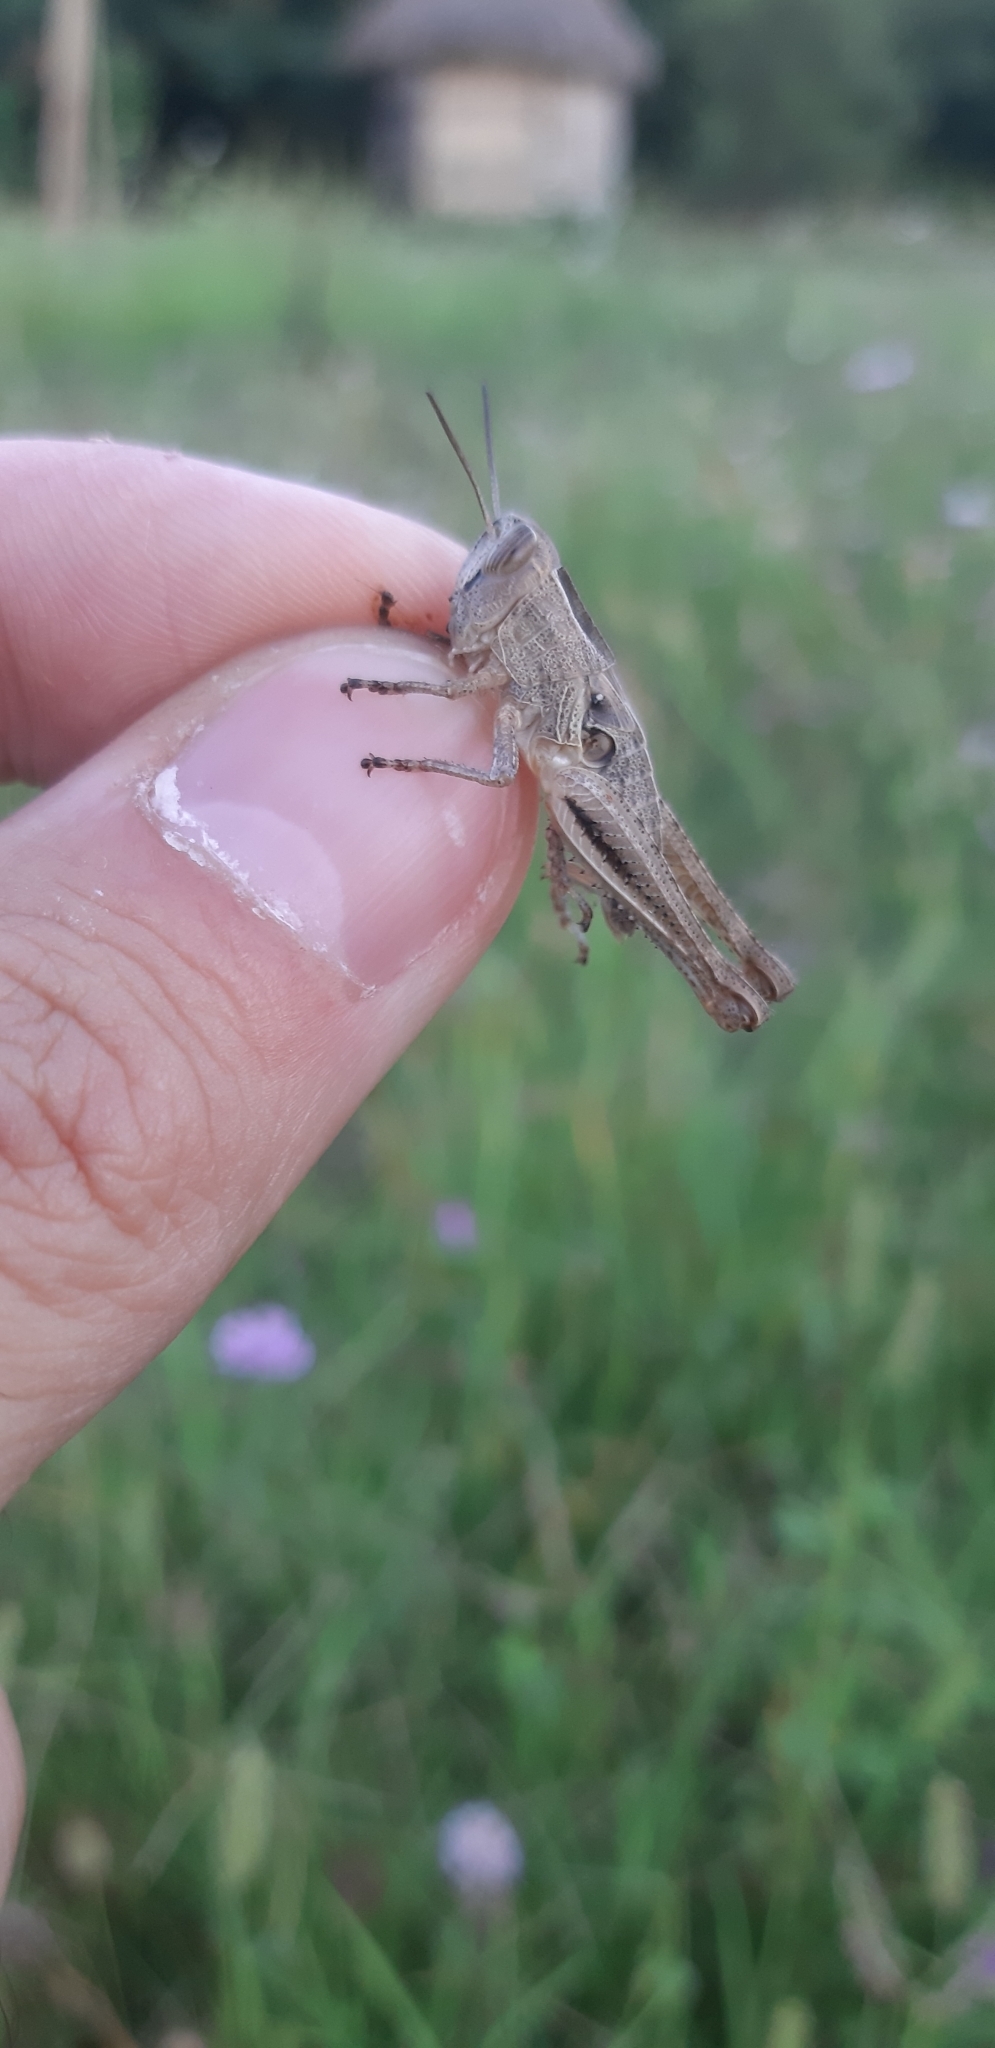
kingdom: Animalia
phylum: Arthropoda
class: Insecta
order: Orthoptera
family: Acrididae
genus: Eyprepocnemis
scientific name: Eyprepocnemis plorans
